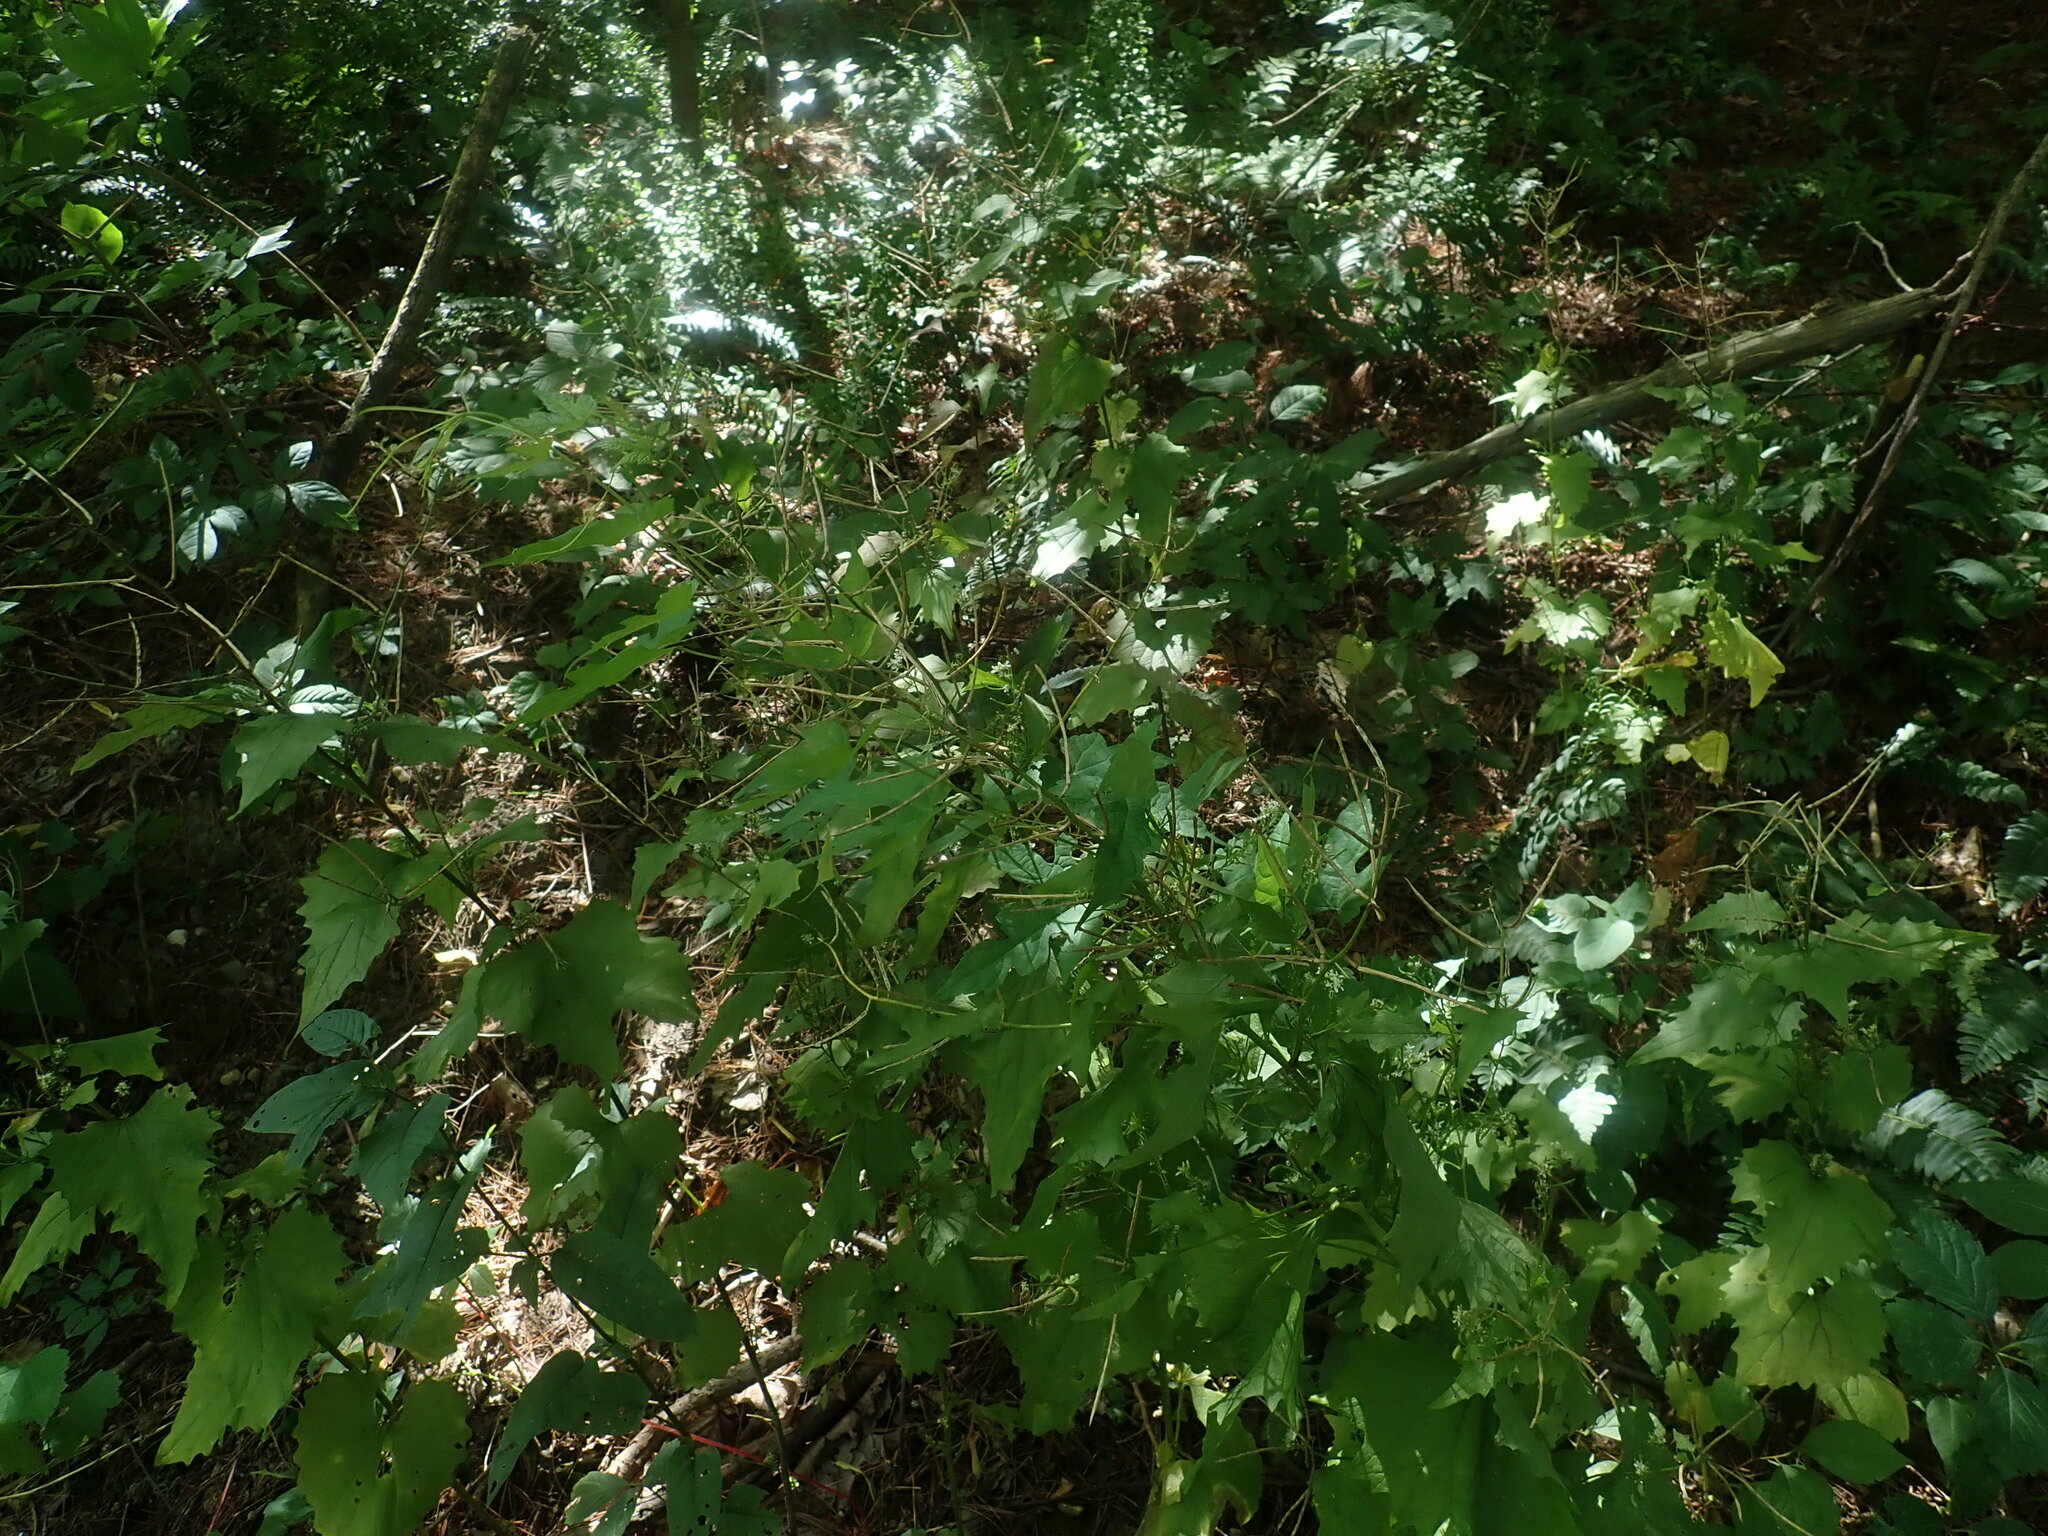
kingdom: Plantae
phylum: Tracheophyta
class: Magnoliopsida
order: Brassicales
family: Brassicaceae
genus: Alliaria
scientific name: Alliaria petiolata
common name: Garlic mustard
